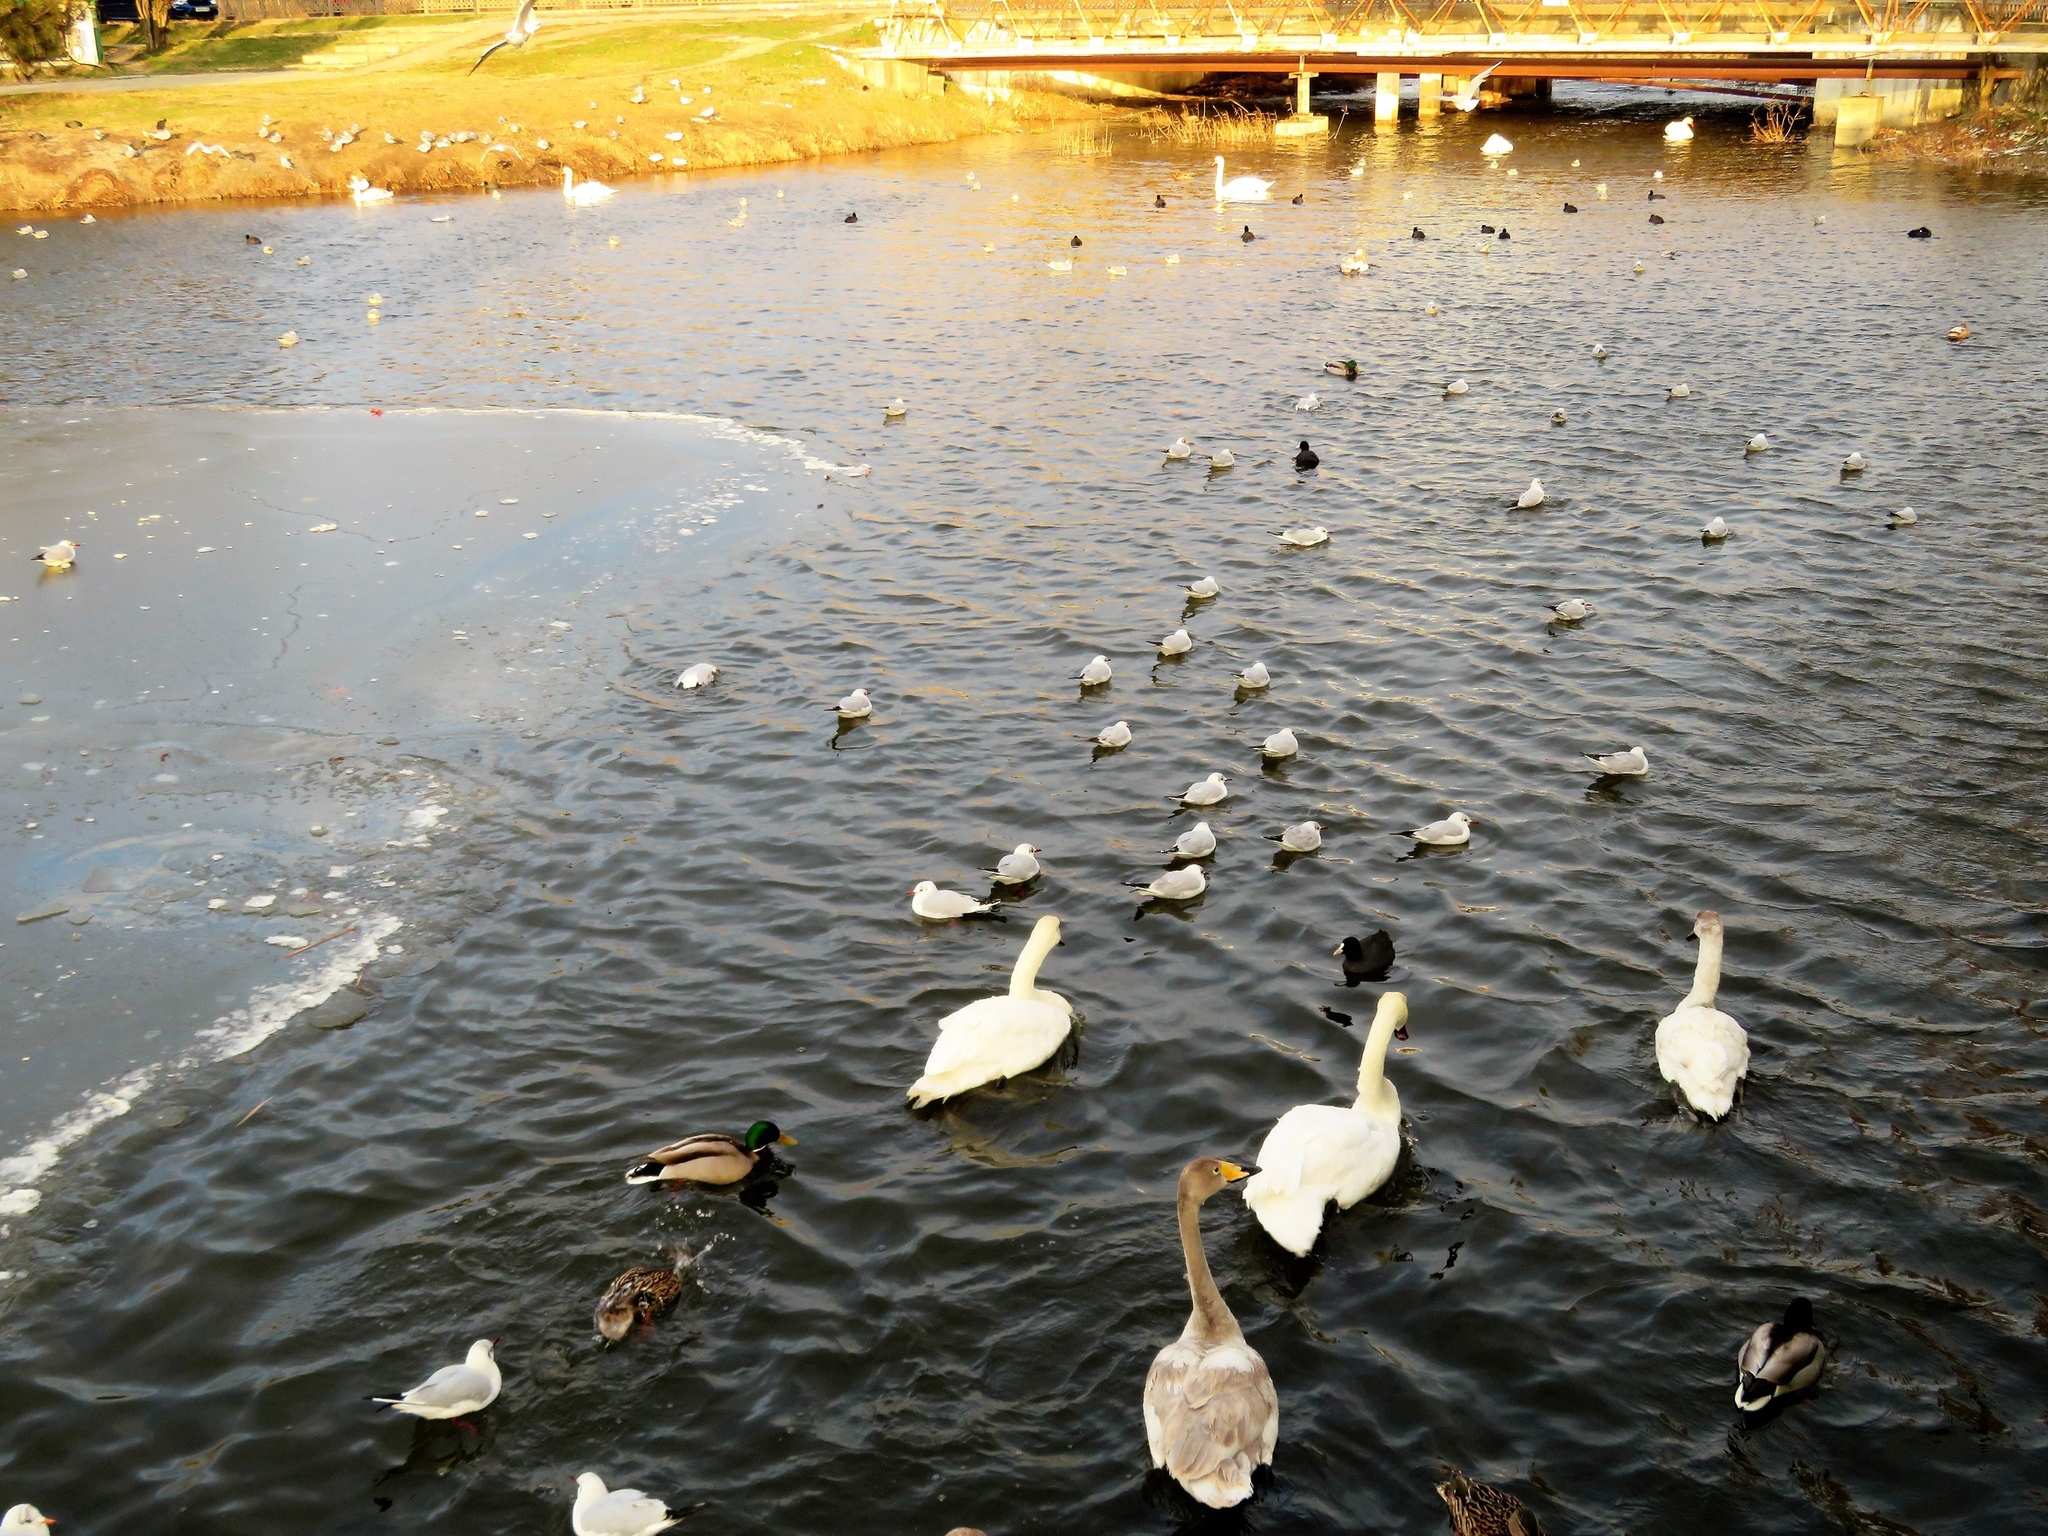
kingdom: Animalia
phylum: Chordata
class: Aves
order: Anseriformes
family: Anatidae
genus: Cygnus
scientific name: Cygnus cygnus
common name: Whooper swan
